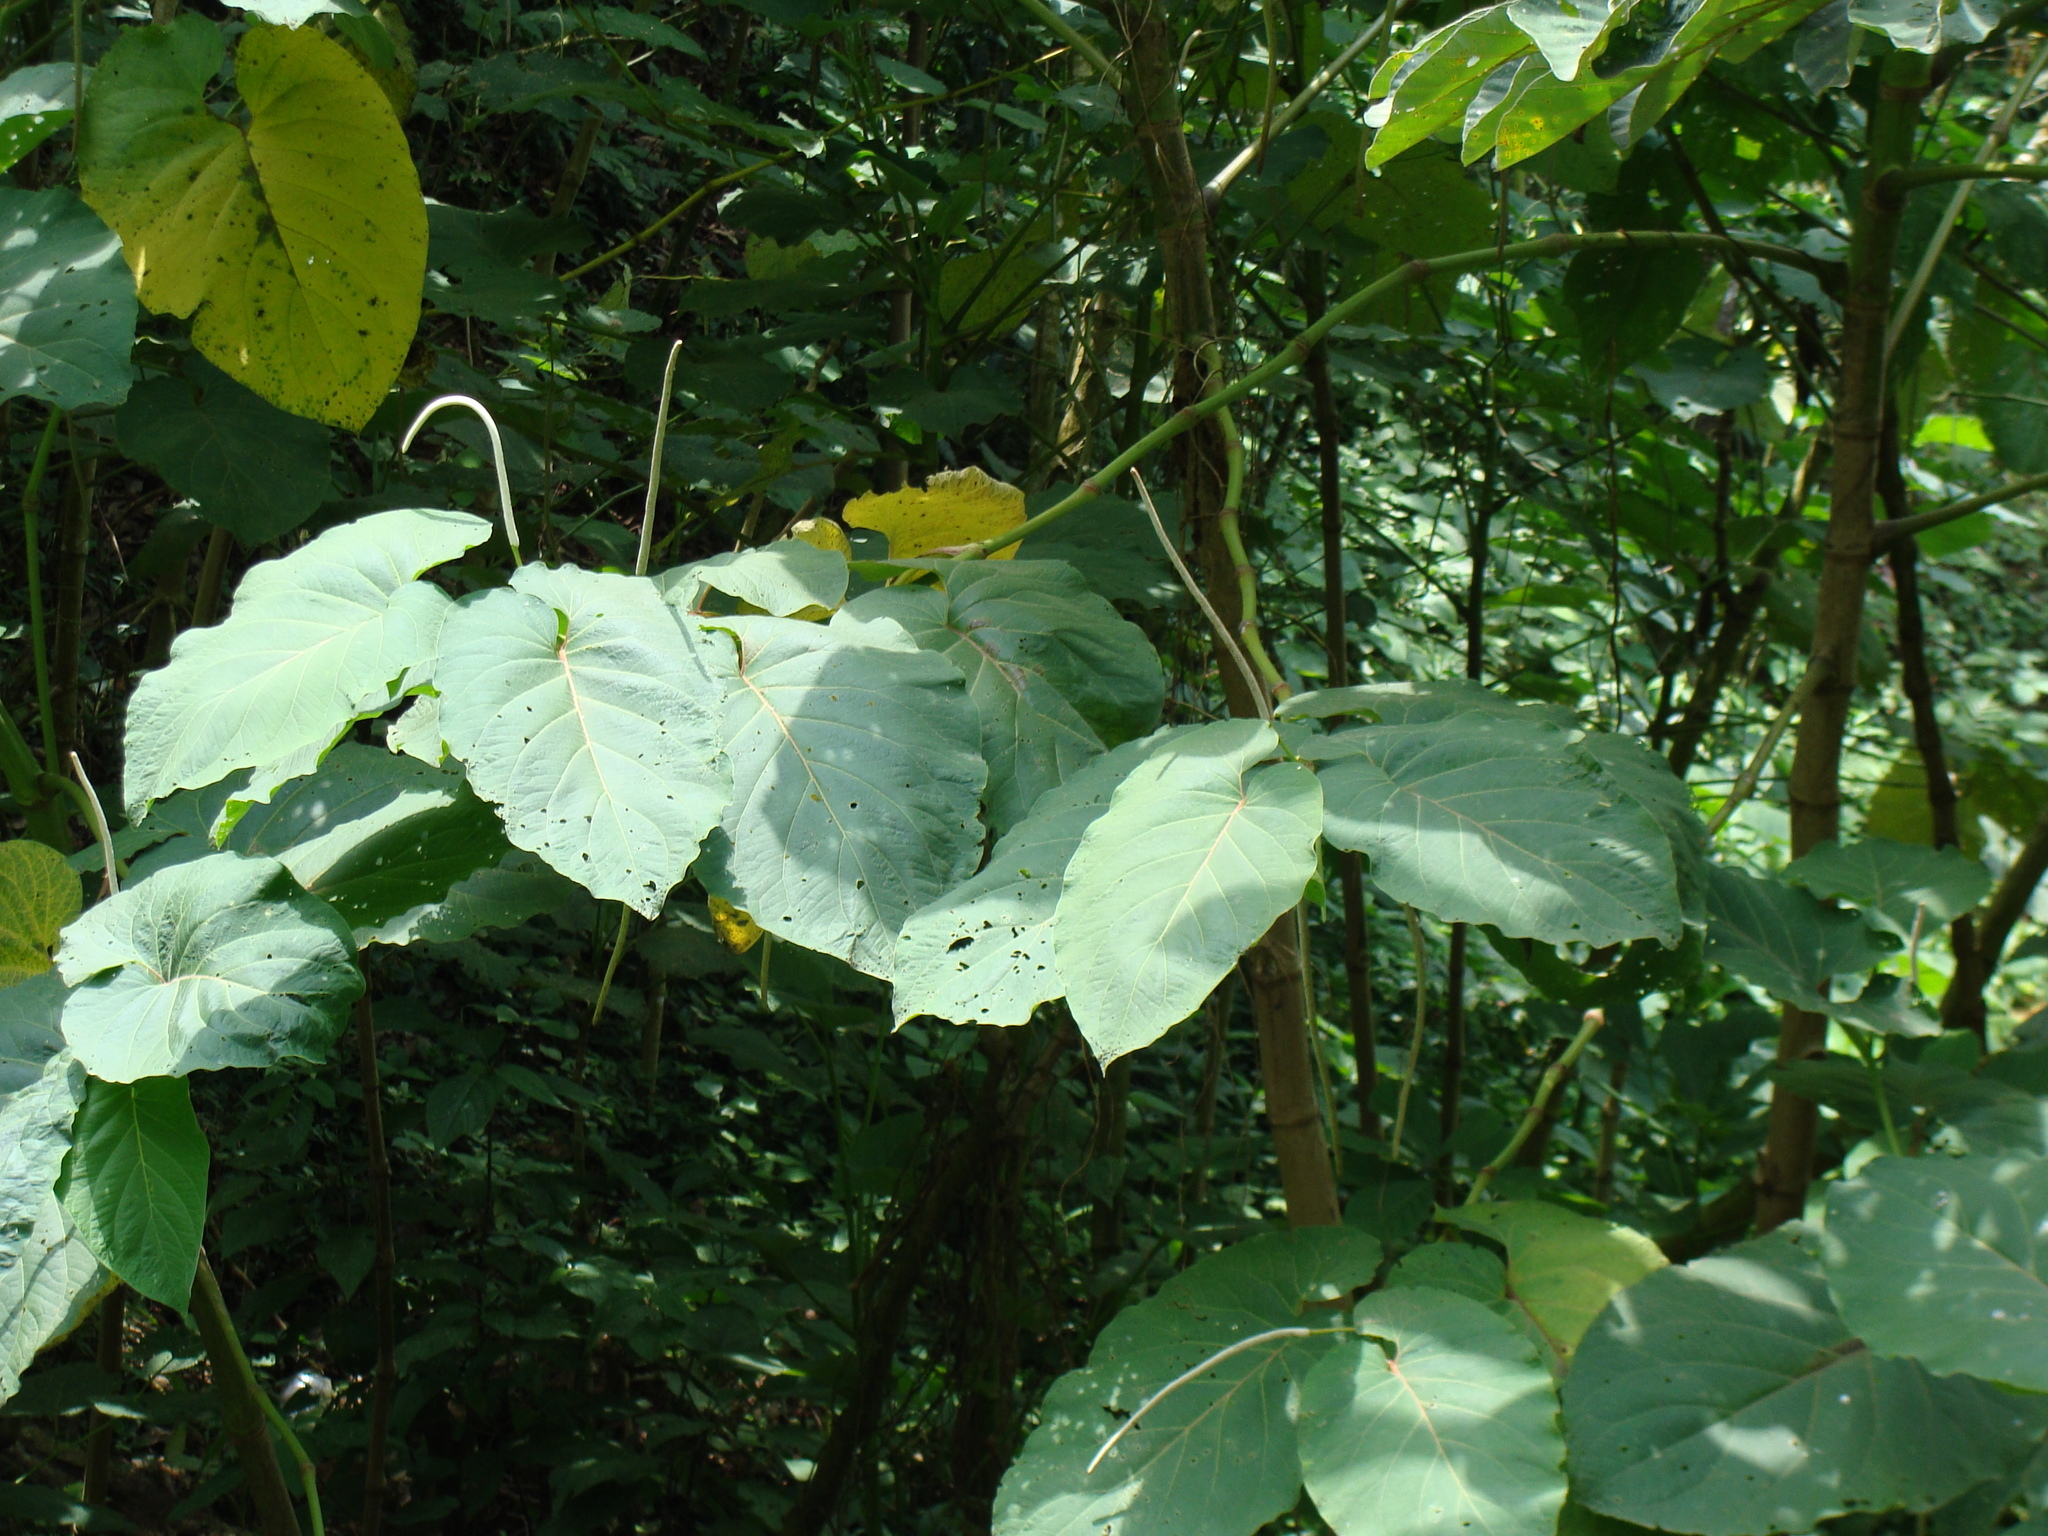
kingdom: Plantae
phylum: Tracheophyta
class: Magnoliopsida
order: Piperales
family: Piperaceae
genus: Piper
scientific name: Piper auritum
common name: Vera cruz pepper
